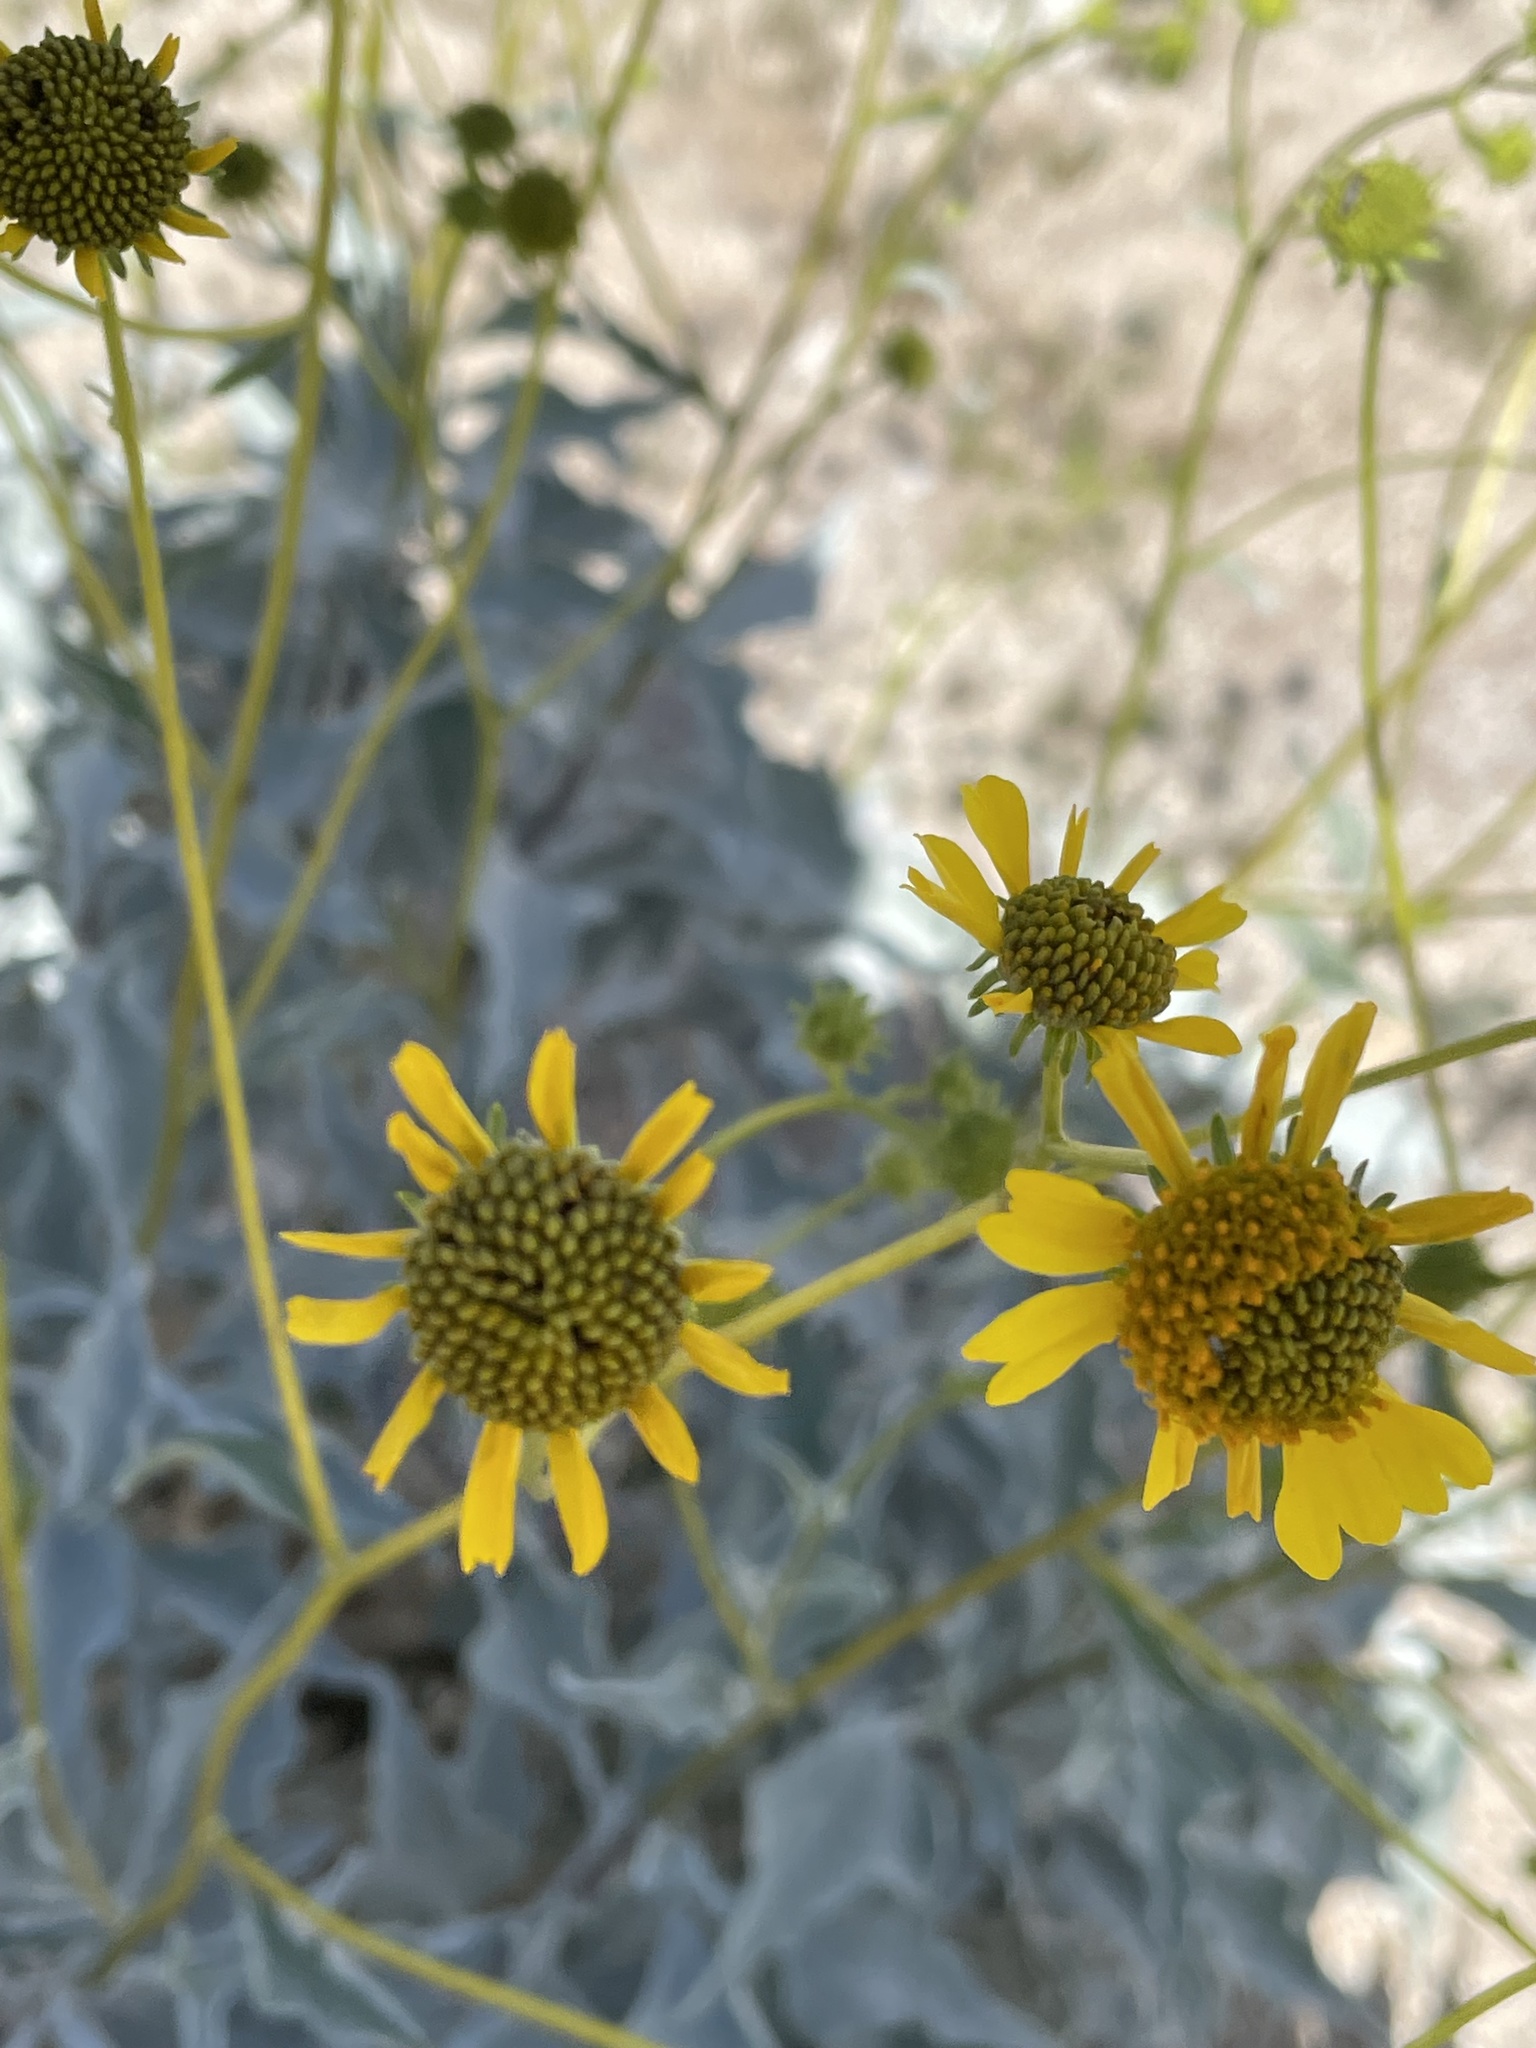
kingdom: Plantae
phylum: Tracheophyta
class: Magnoliopsida
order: Asterales
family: Asteraceae
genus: Encelia
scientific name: Encelia farinosa
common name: Brittlebush
